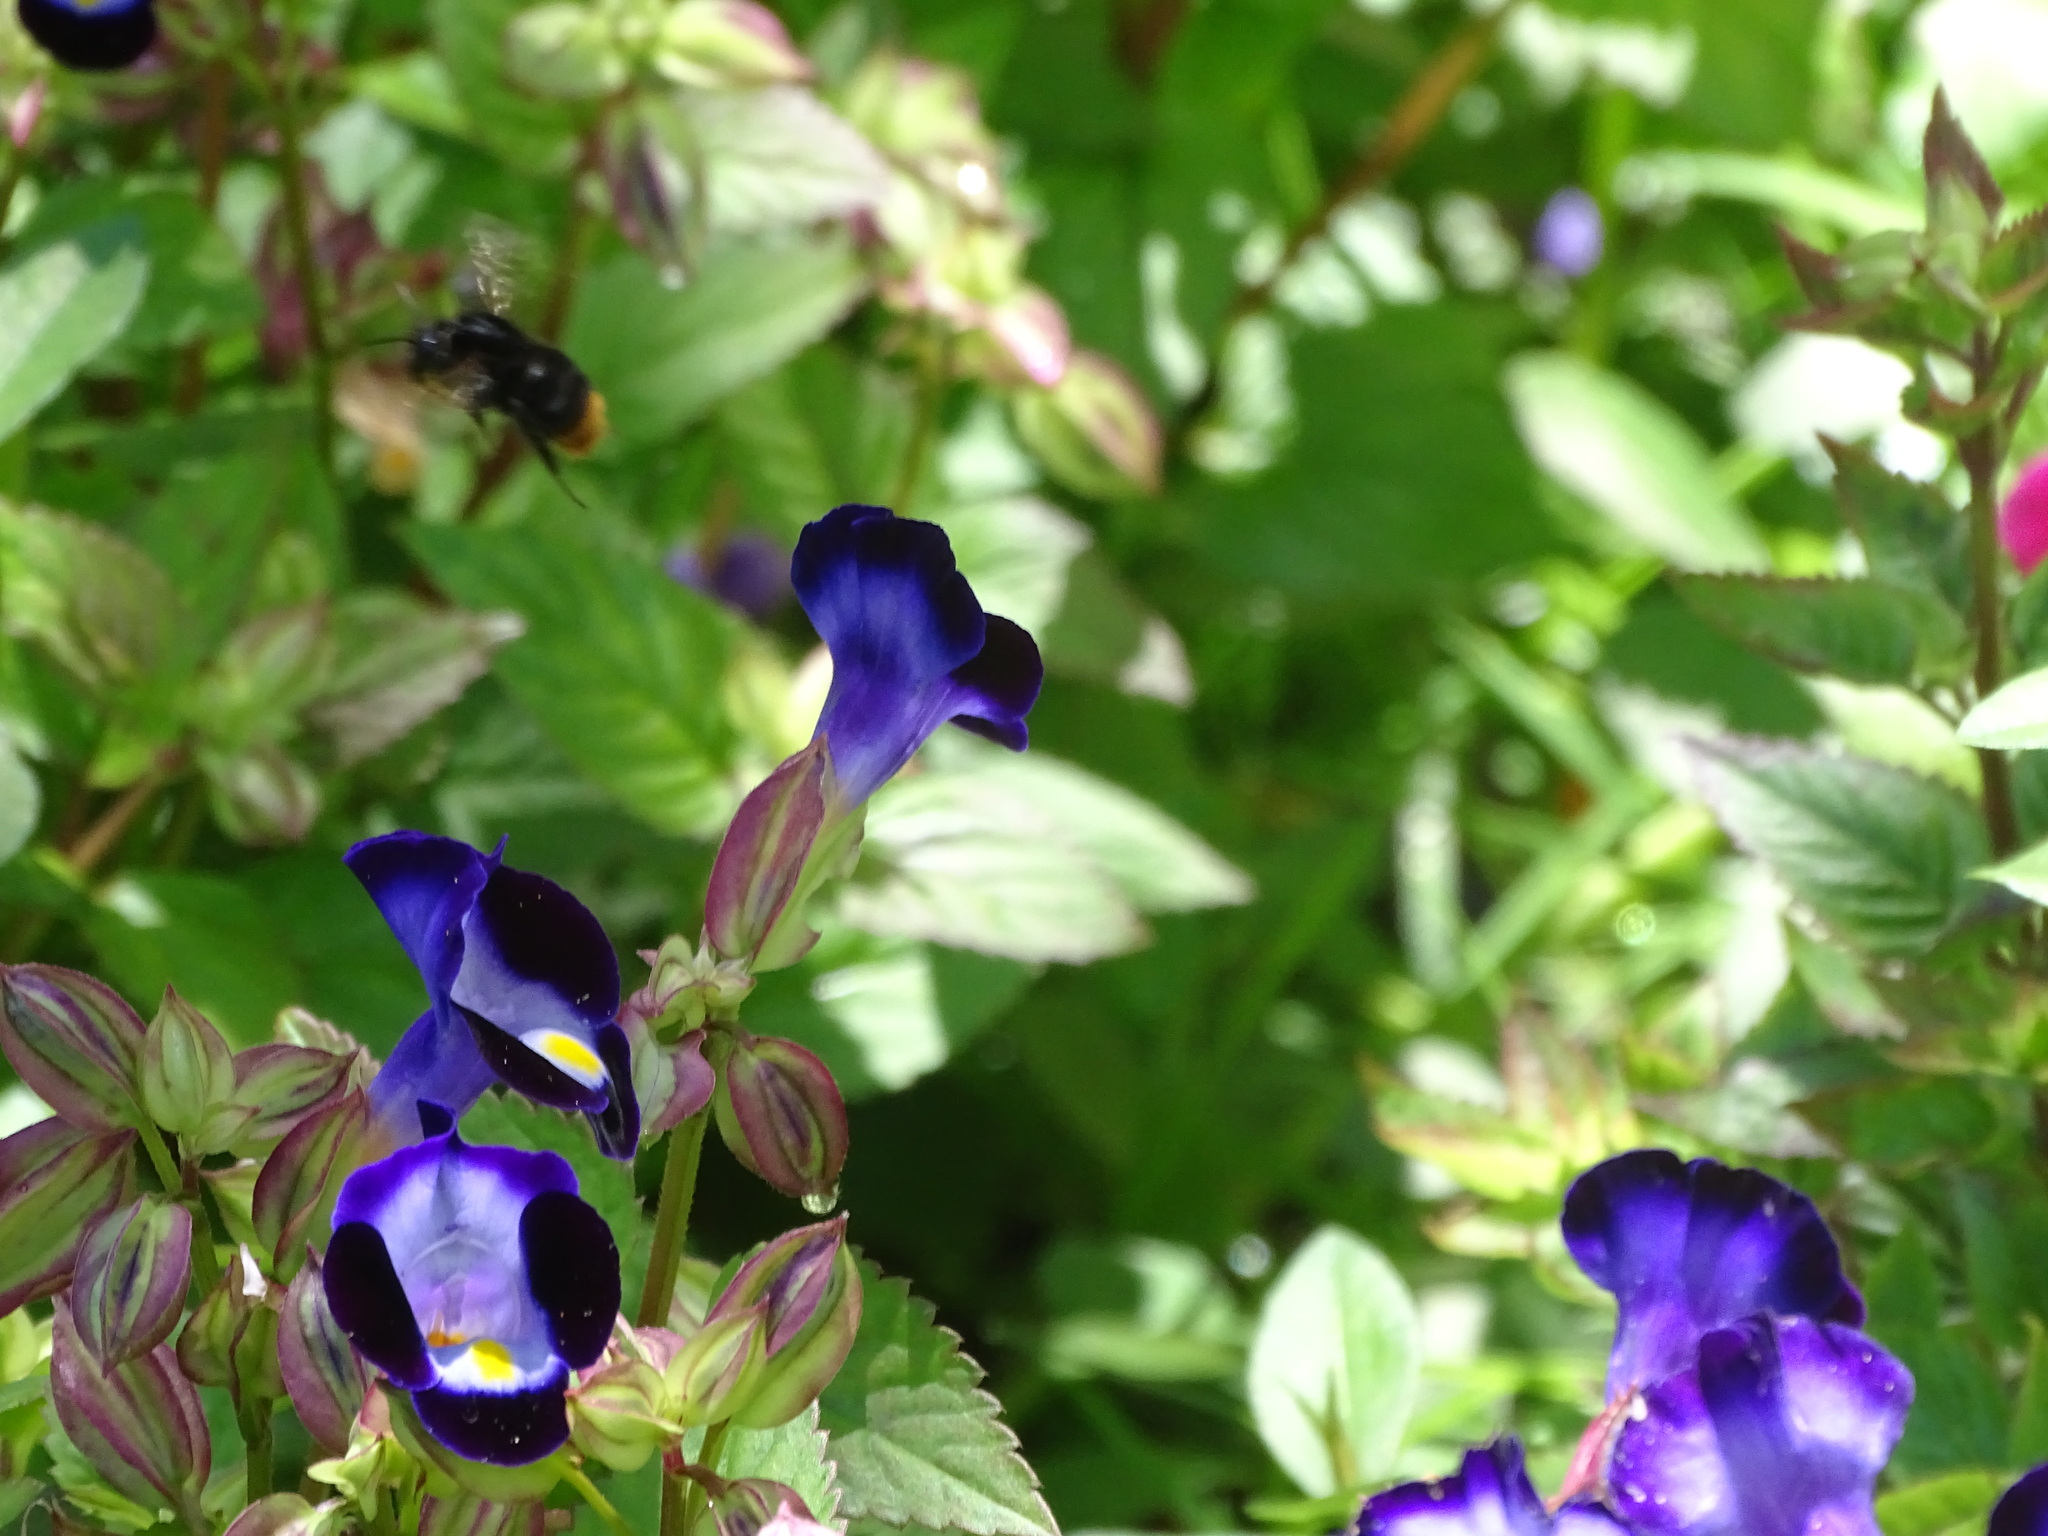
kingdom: Animalia
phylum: Arthropoda
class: Insecta
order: Hymenoptera
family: Apidae
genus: Bombus
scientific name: Bombus trifasciatus
